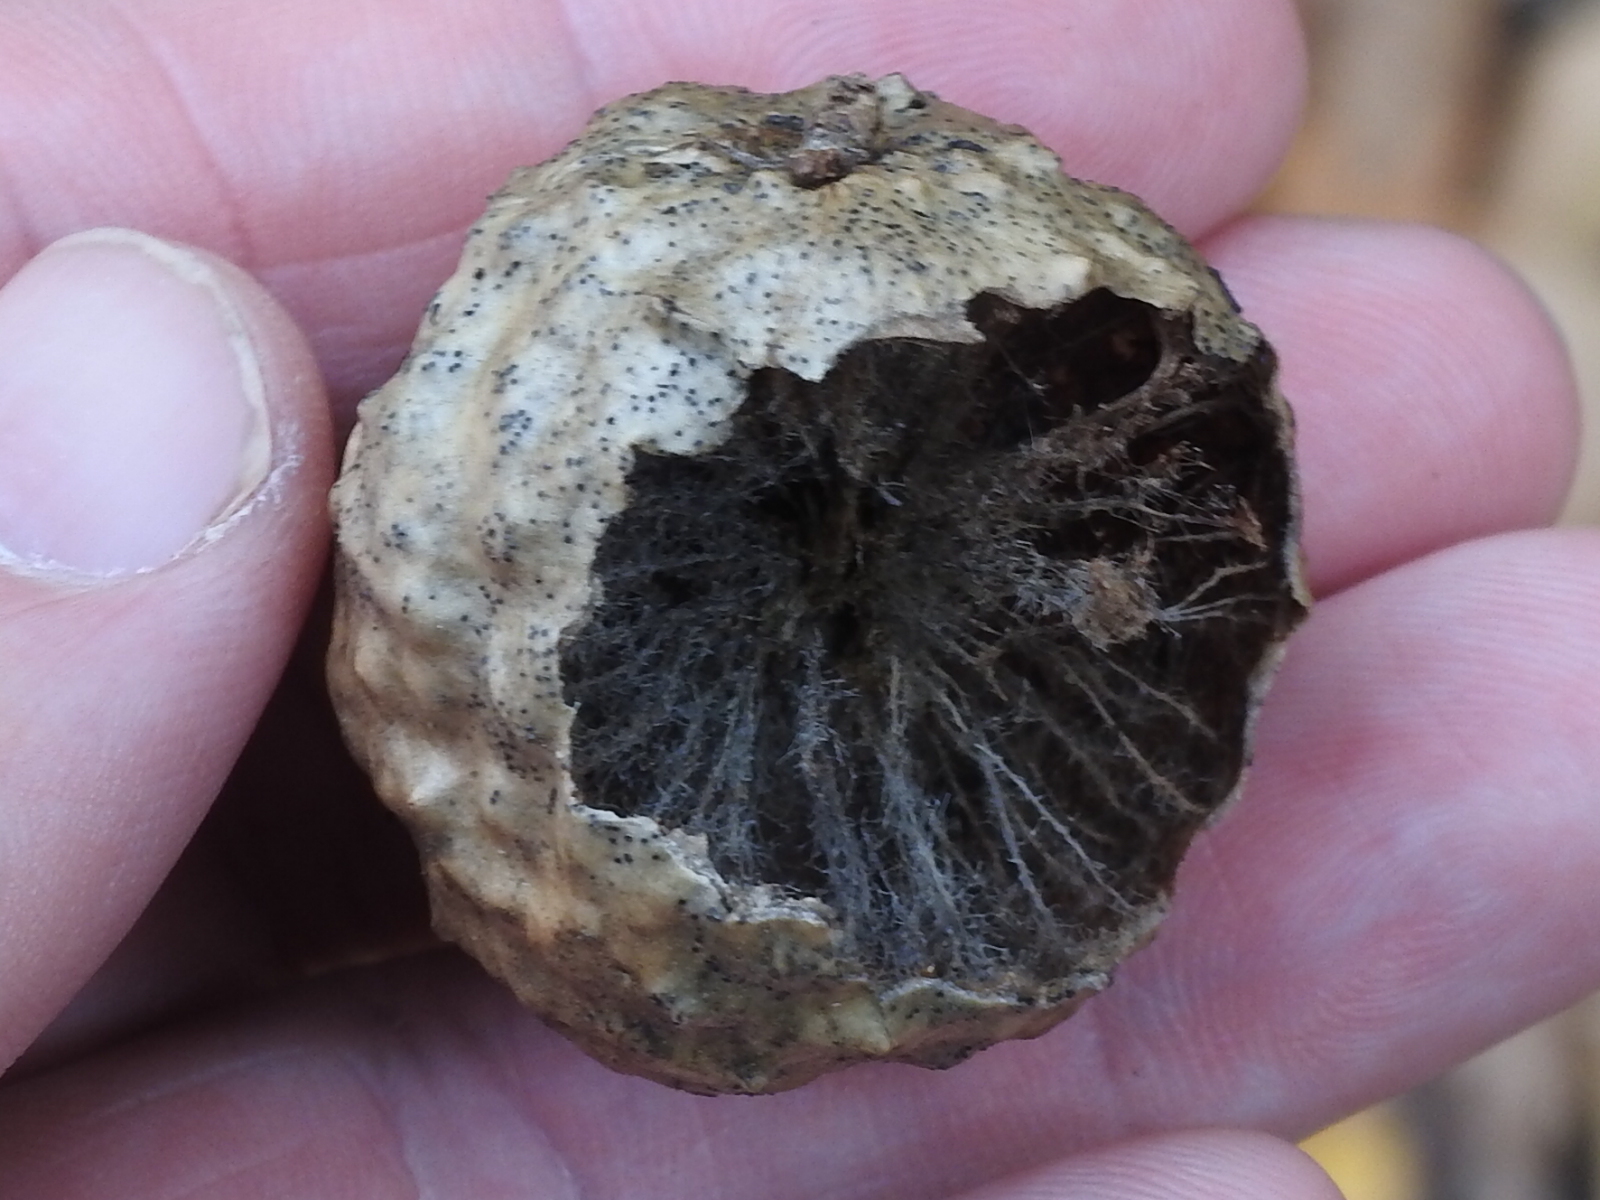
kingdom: Animalia
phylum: Arthropoda
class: Insecta
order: Hymenoptera
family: Cynipidae
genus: Amphibolips
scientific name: Amphibolips
